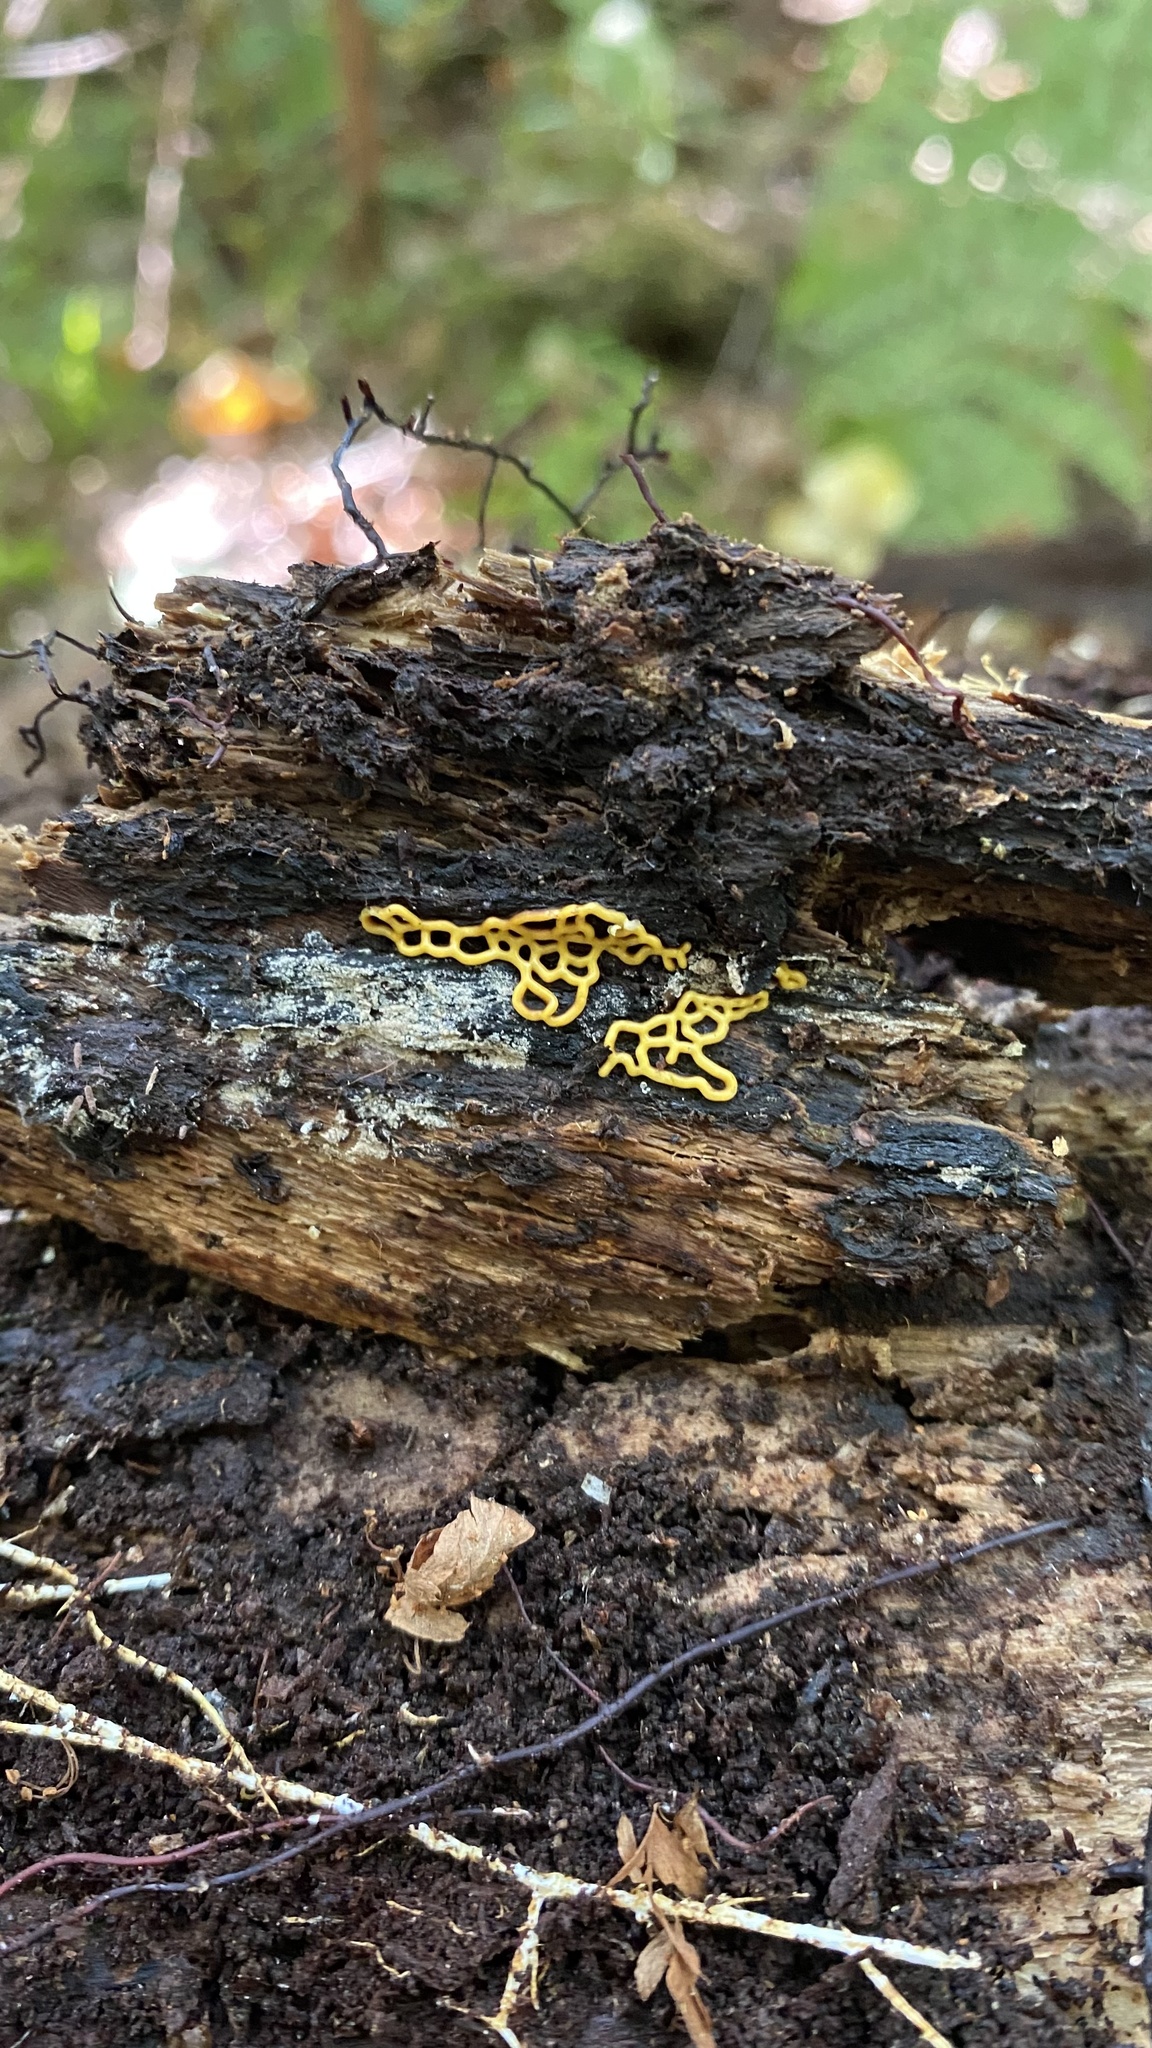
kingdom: Protozoa
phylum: Mycetozoa
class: Myxomycetes
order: Trichiales
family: Arcyriaceae
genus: Hemitrichia
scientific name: Hemitrichia serpula
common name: Pretzel slime mold
